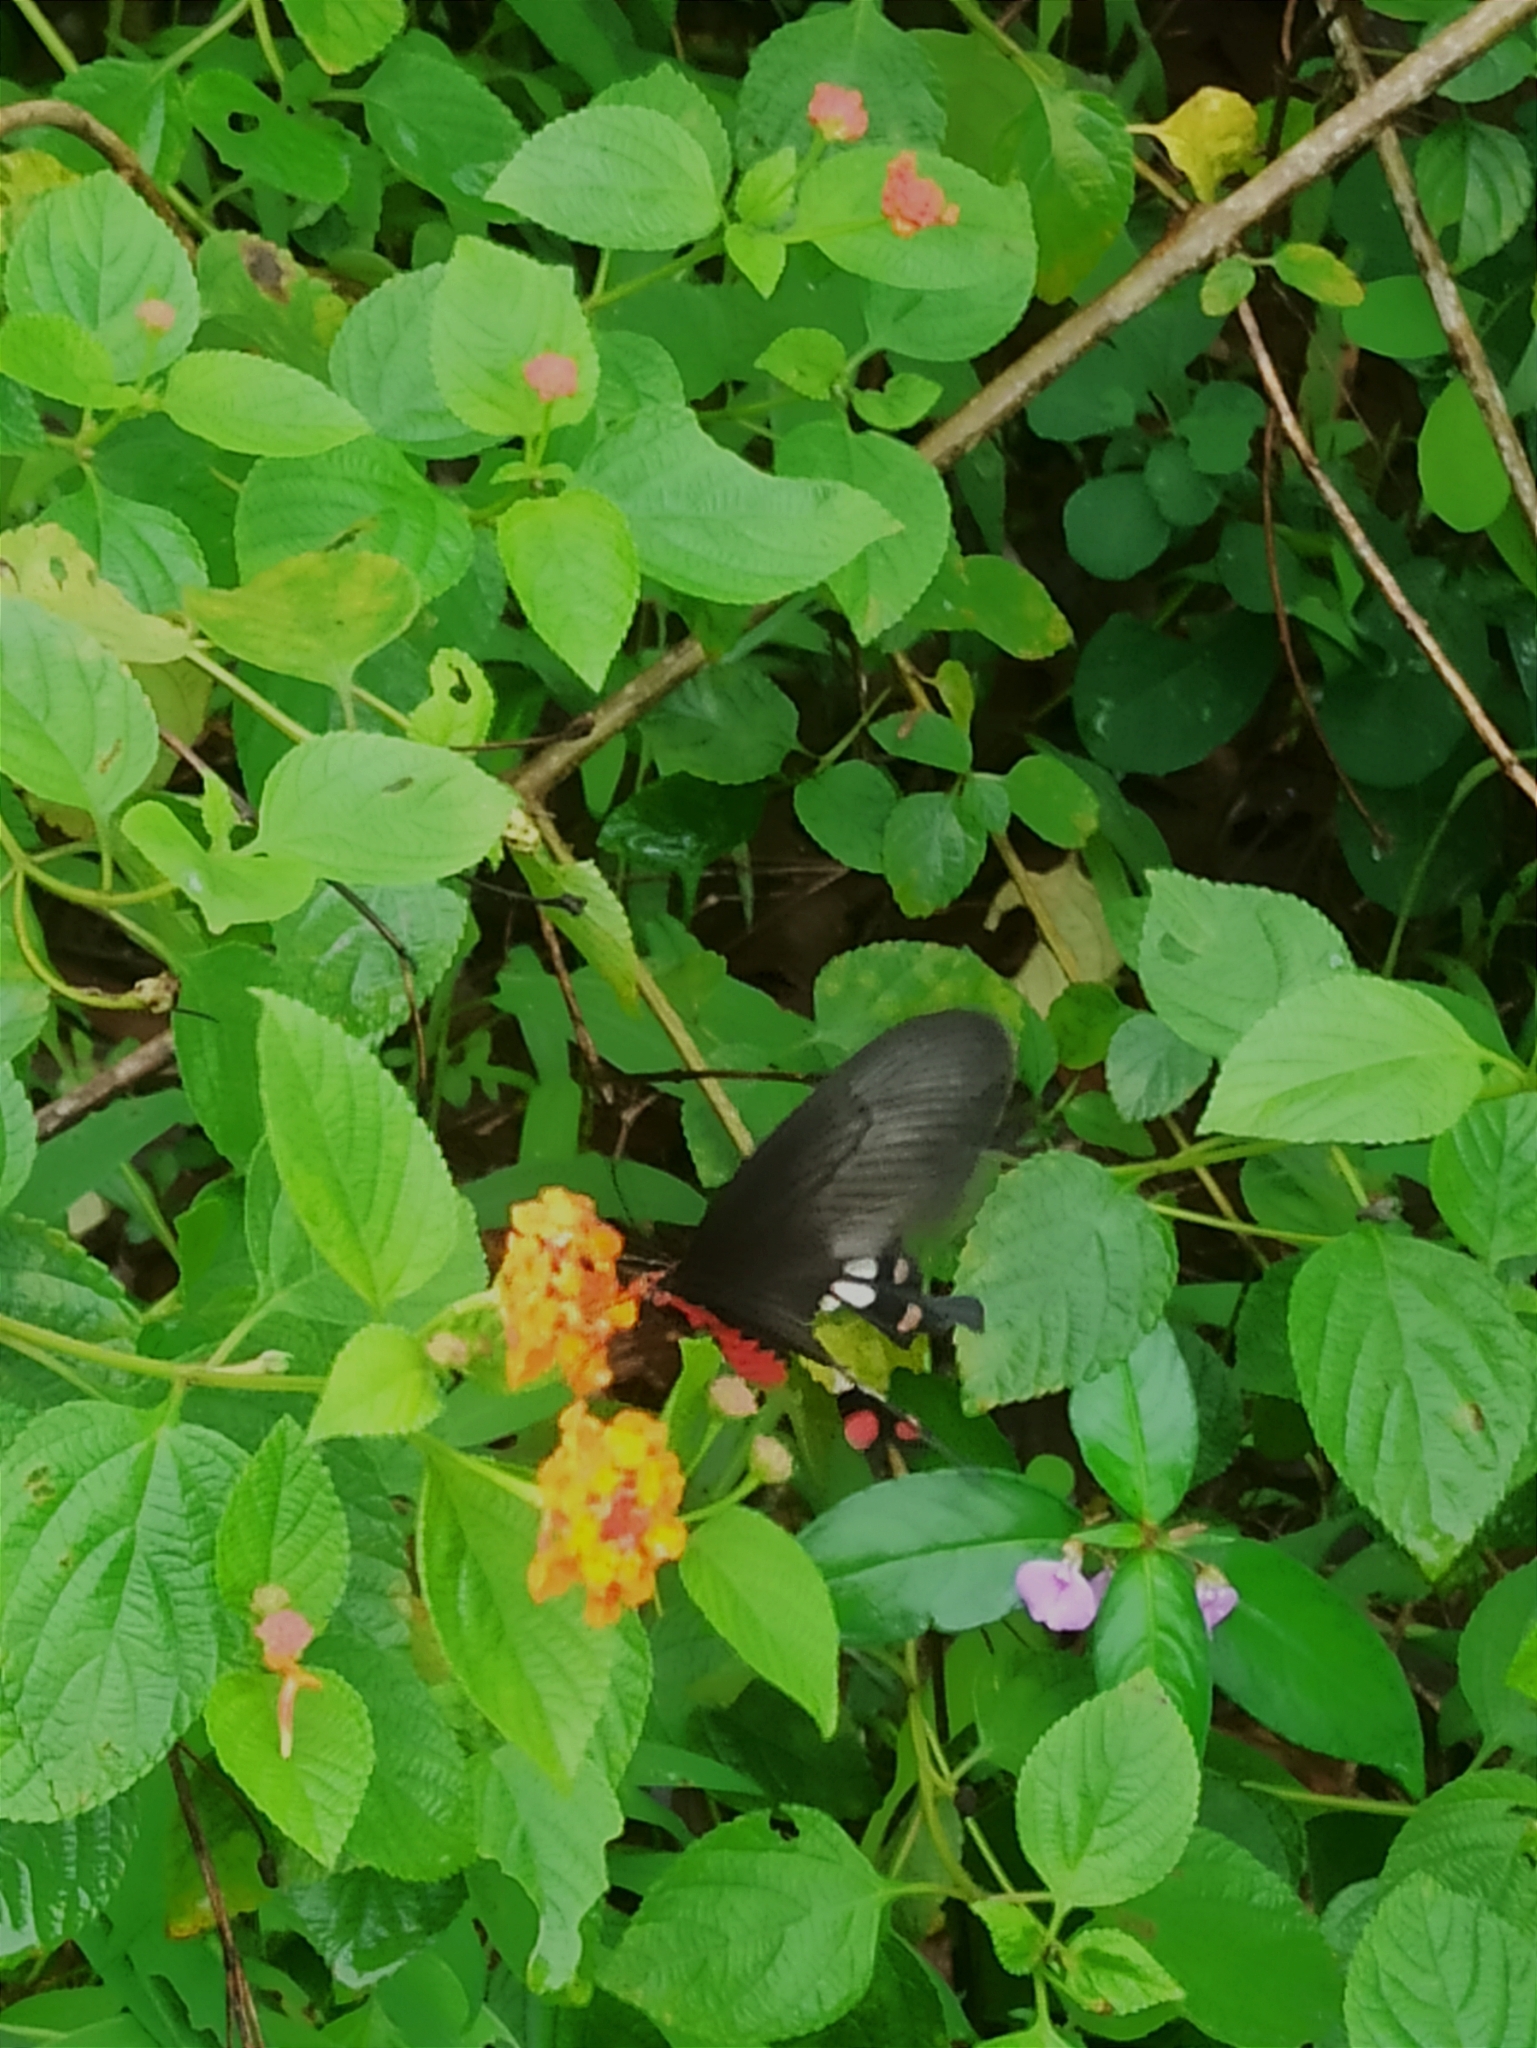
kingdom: Animalia
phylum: Arthropoda
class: Insecta
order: Lepidoptera
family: Papilionidae
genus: Pachliopta
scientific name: Pachliopta aristolochiae
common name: Common rose
